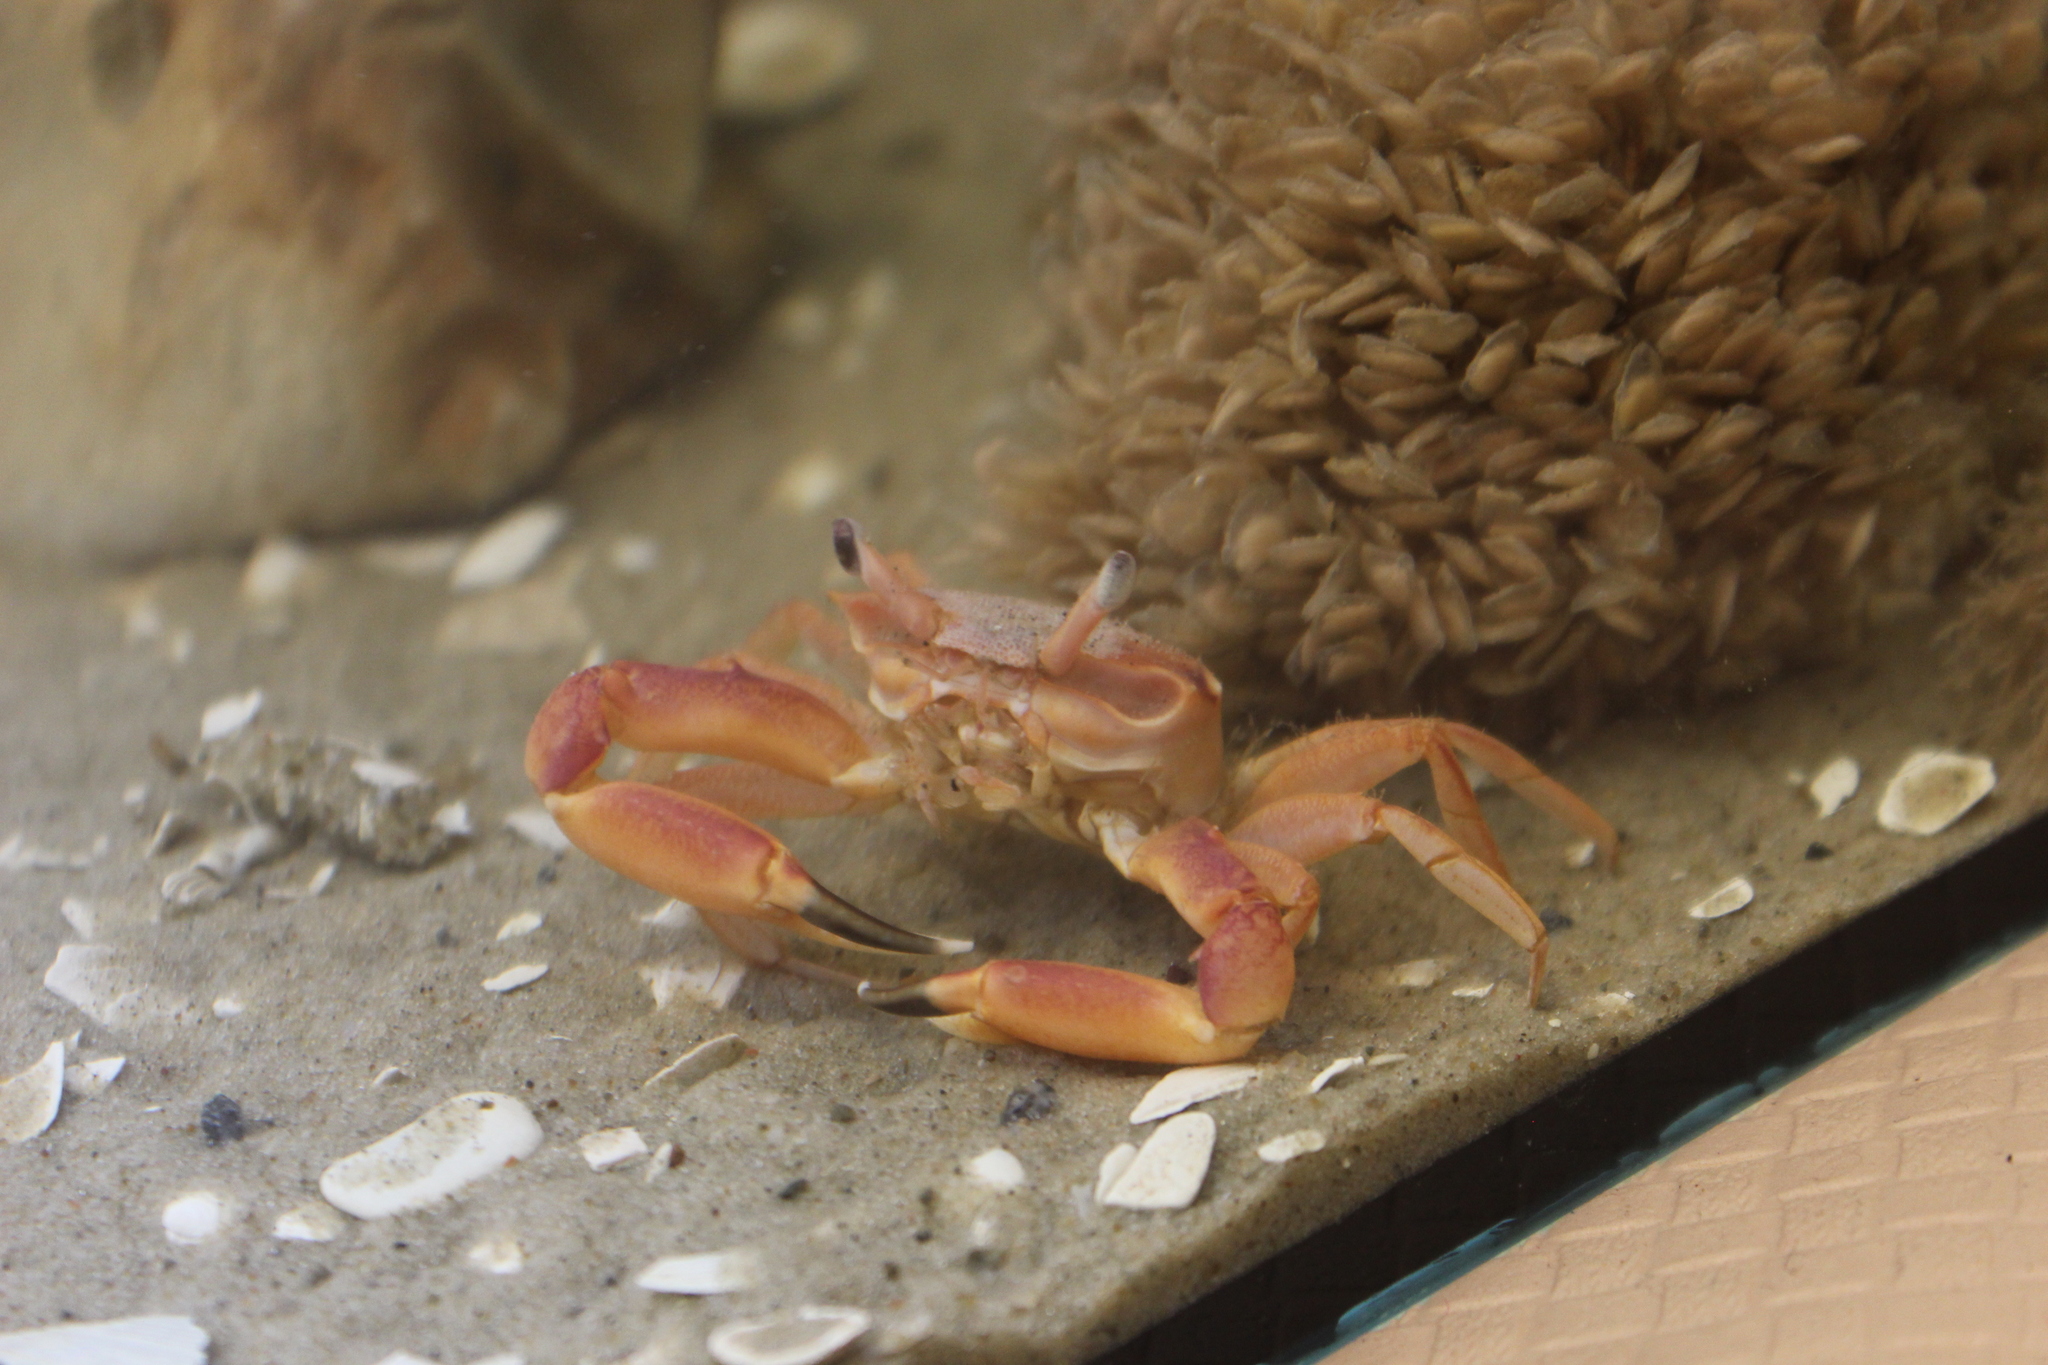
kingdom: Animalia
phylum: Arthropoda
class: Malacostraca
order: Decapoda
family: Goneplacidae
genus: Goneplax
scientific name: Goneplax rhomboides
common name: Angular crab
